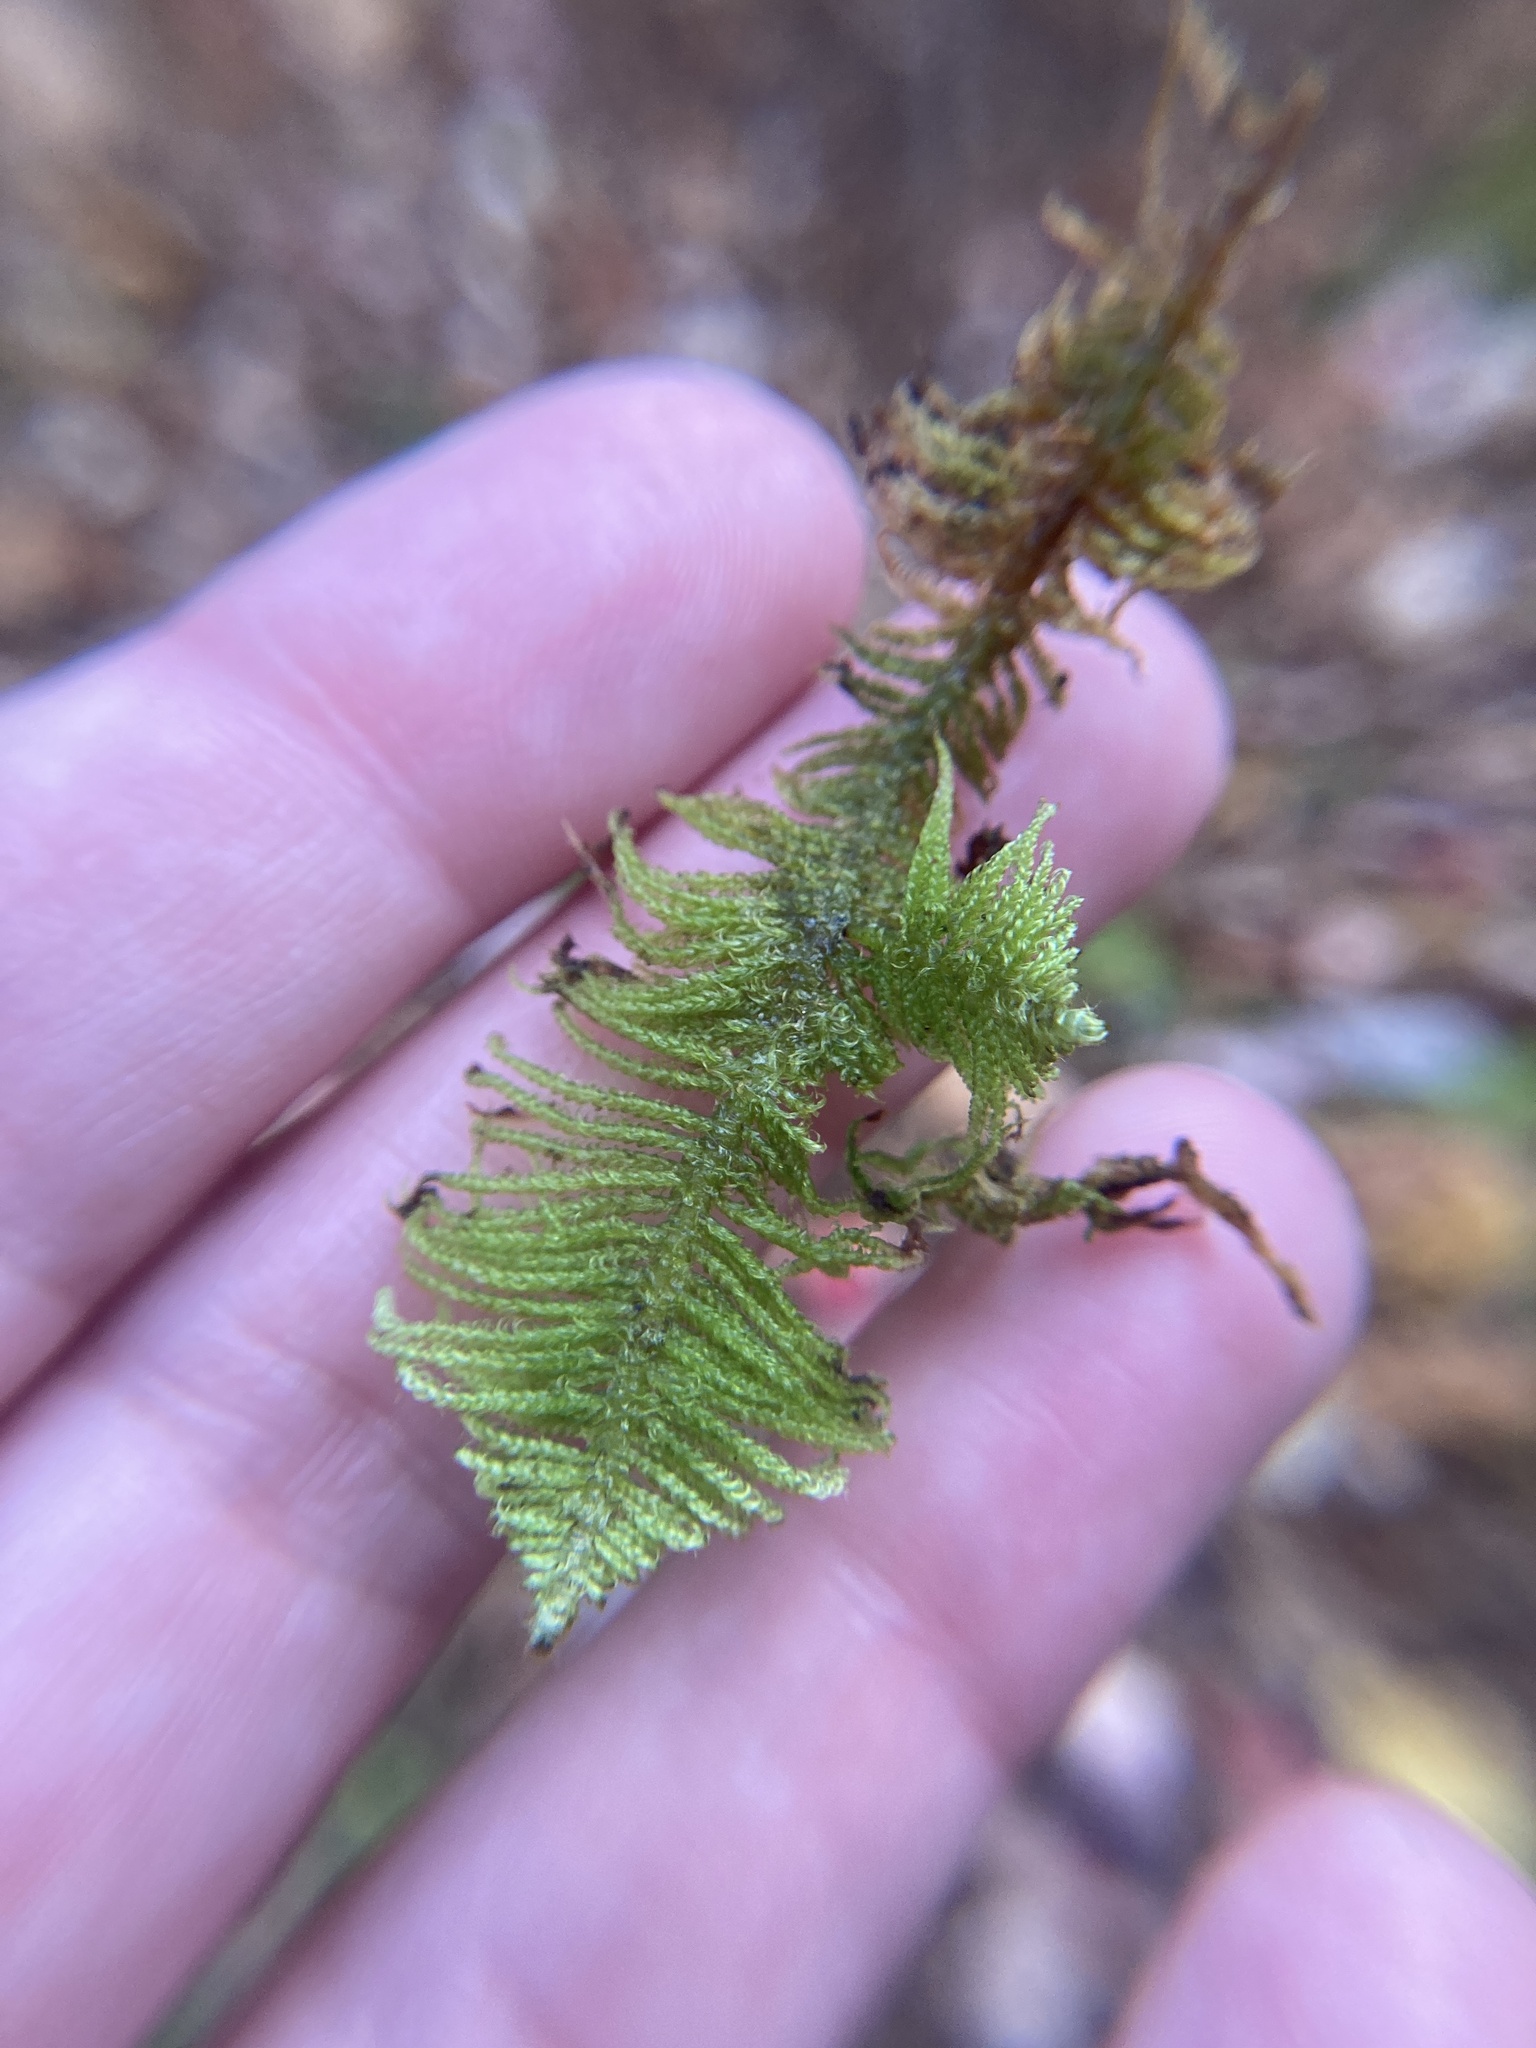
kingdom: Plantae
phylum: Bryophyta
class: Bryopsida
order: Hypnales
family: Pylaisiaceae
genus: Ptilium
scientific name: Ptilium crista-castrensis
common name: Knight's plume moss
